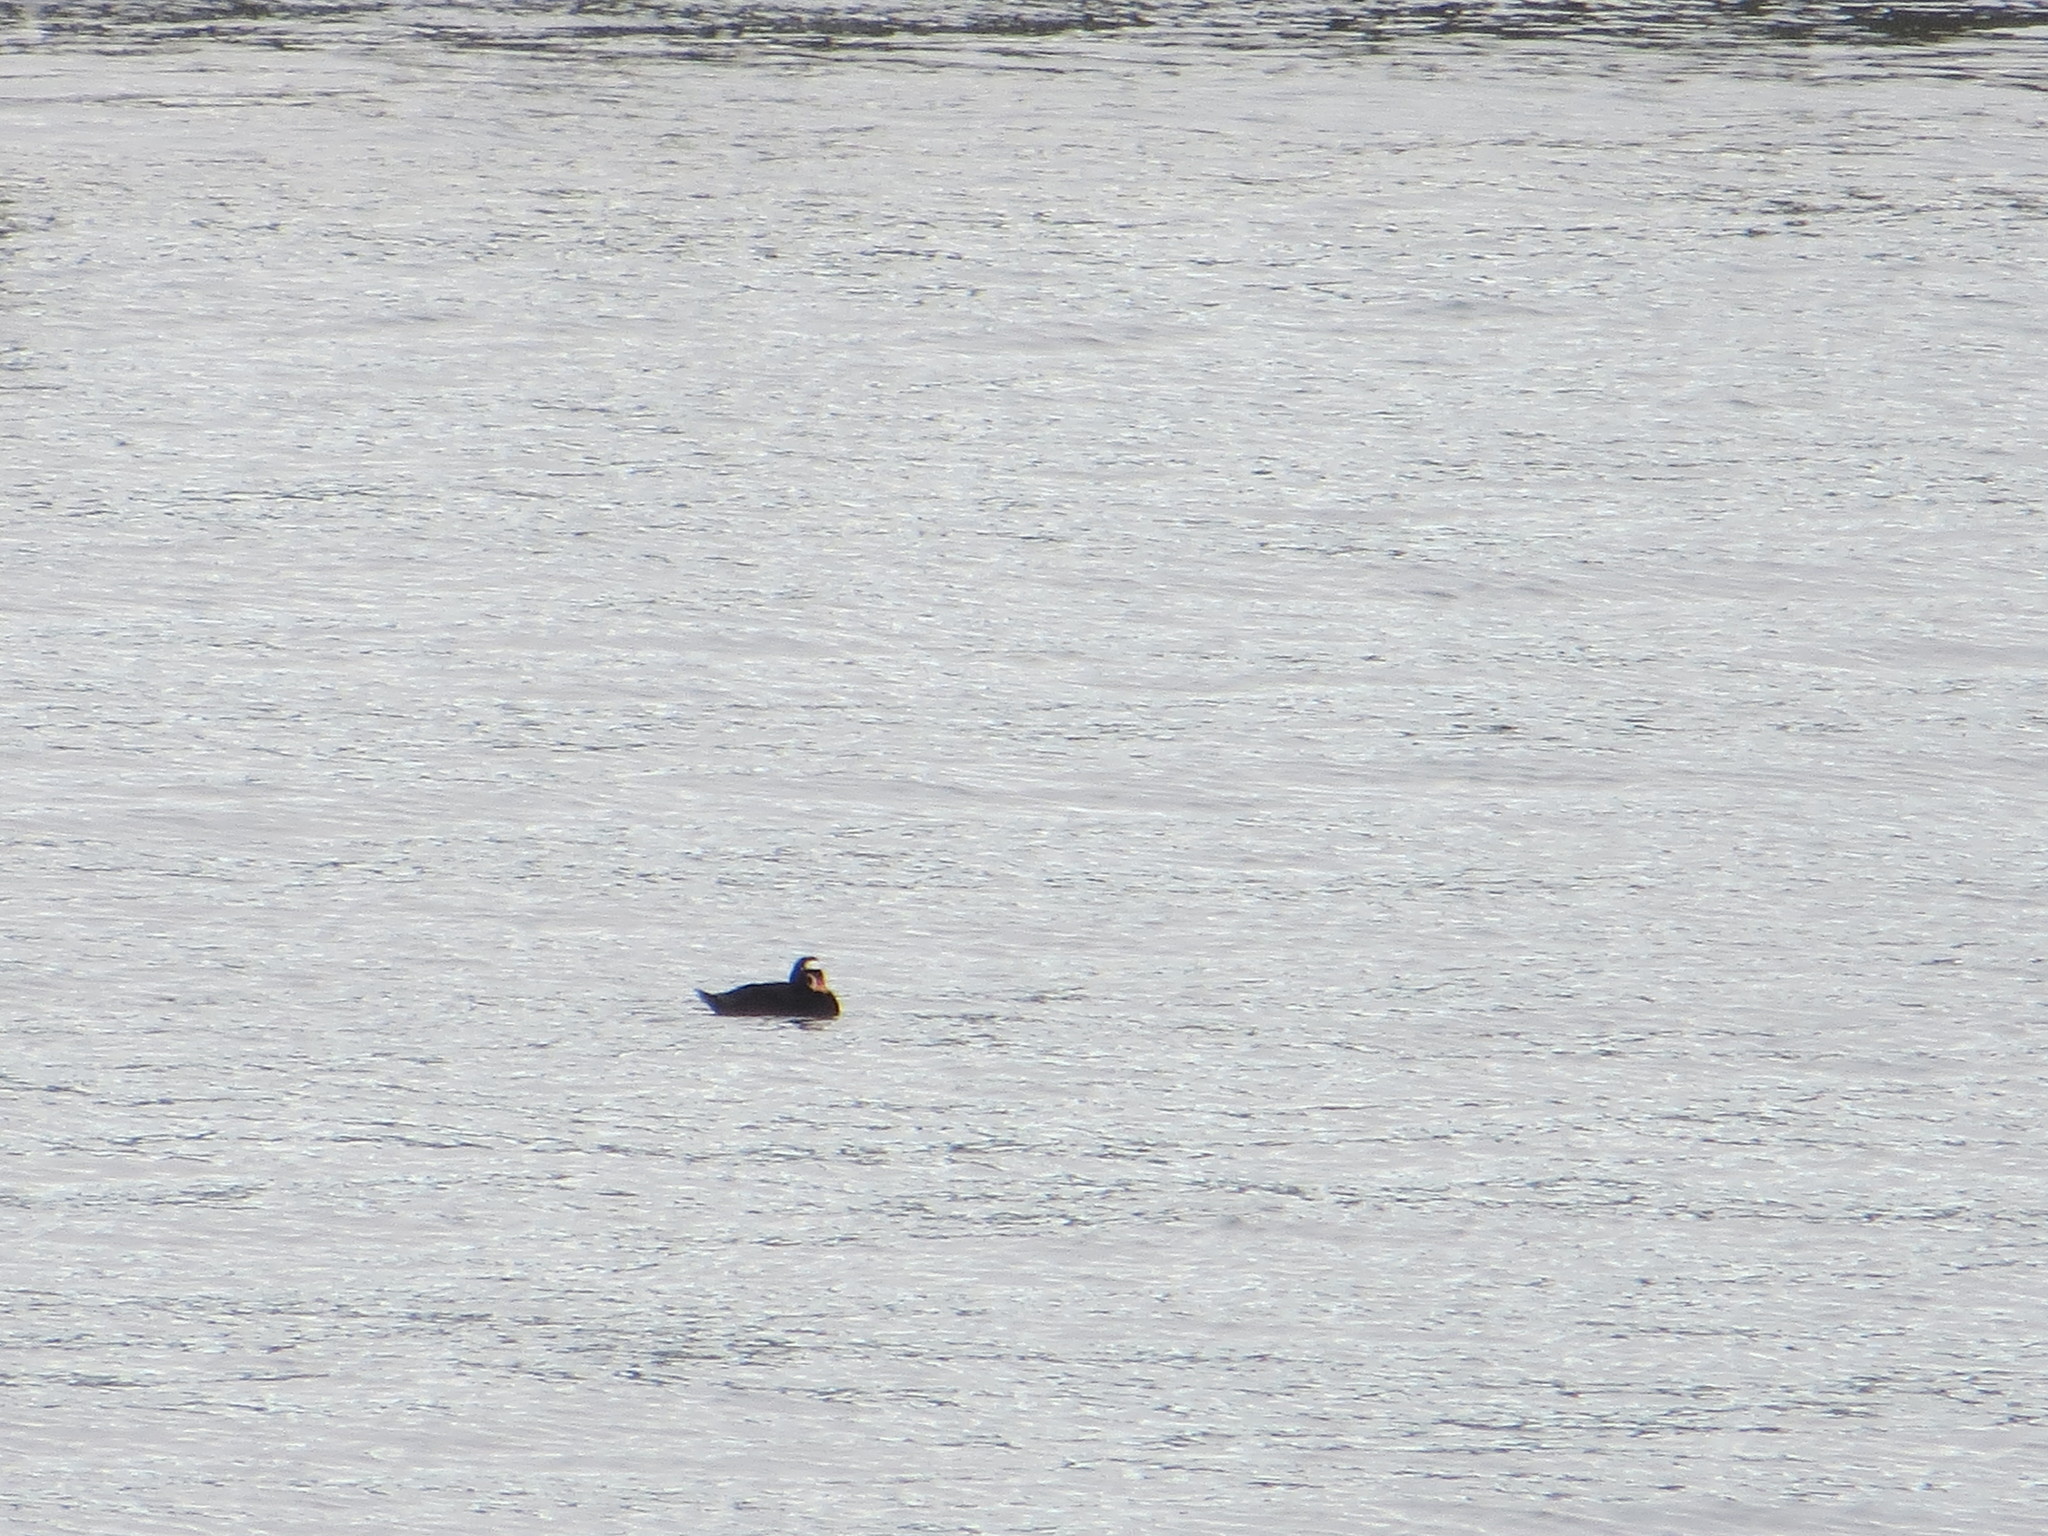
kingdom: Animalia
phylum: Chordata
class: Aves
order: Anseriformes
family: Anatidae
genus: Melanitta
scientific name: Melanitta perspicillata
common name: Surf scoter
